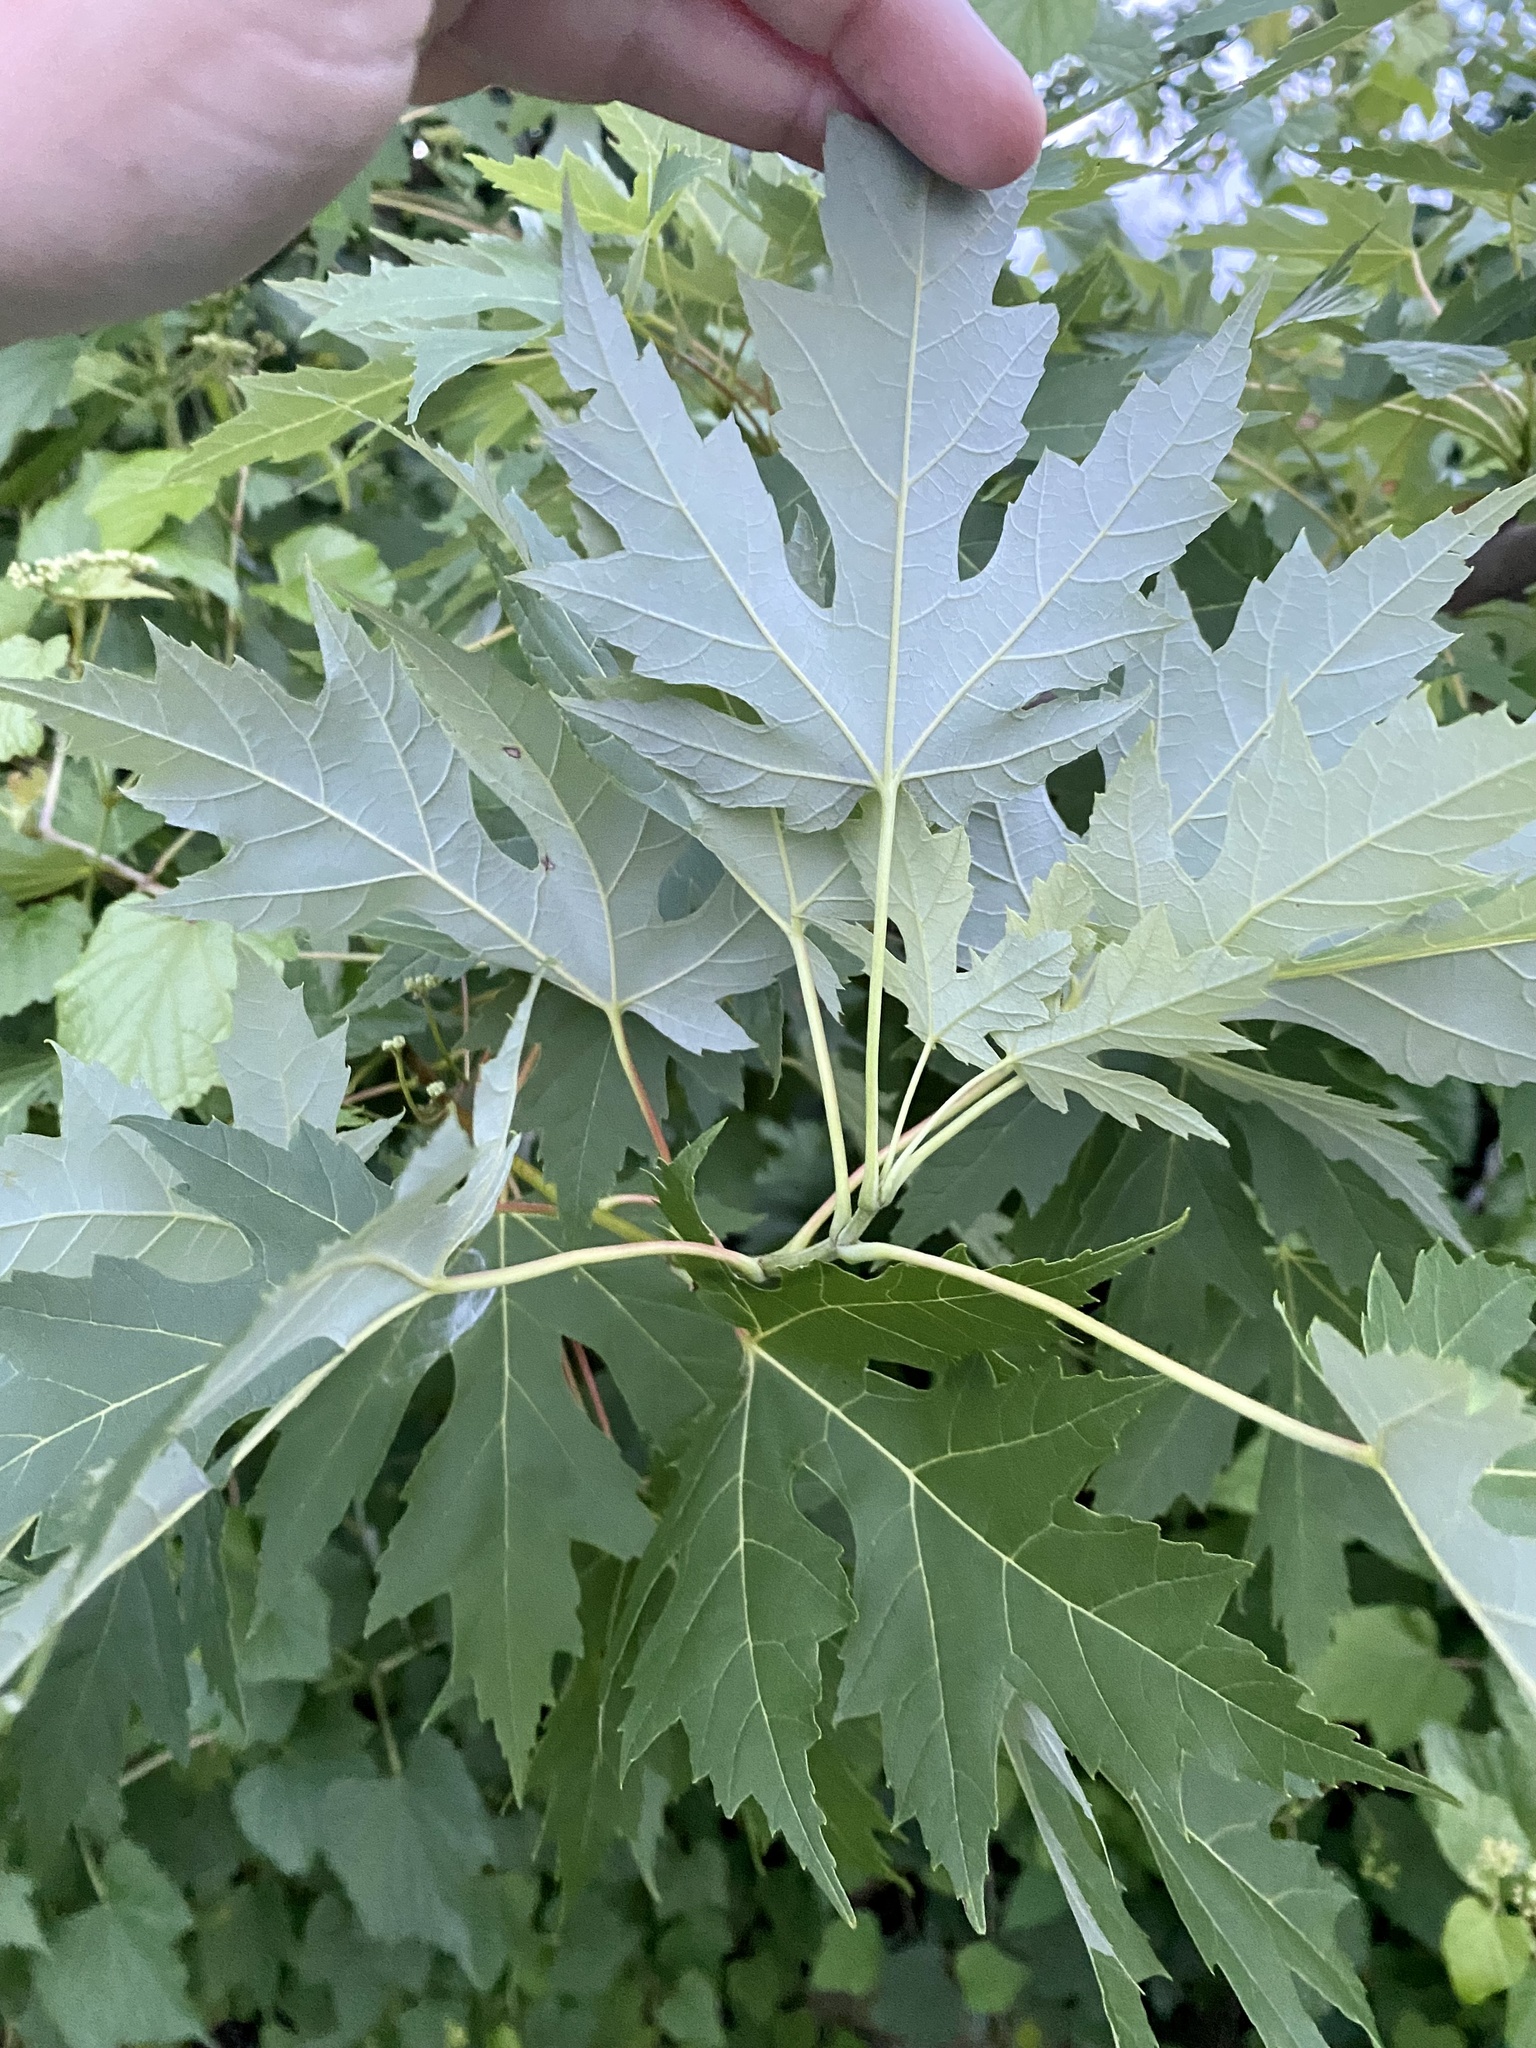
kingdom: Plantae
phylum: Tracheophyta
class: Magnoliopsida
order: Sapindales
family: Sapindaceae
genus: Acer
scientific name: Acer saccharinum
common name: Silver maple
